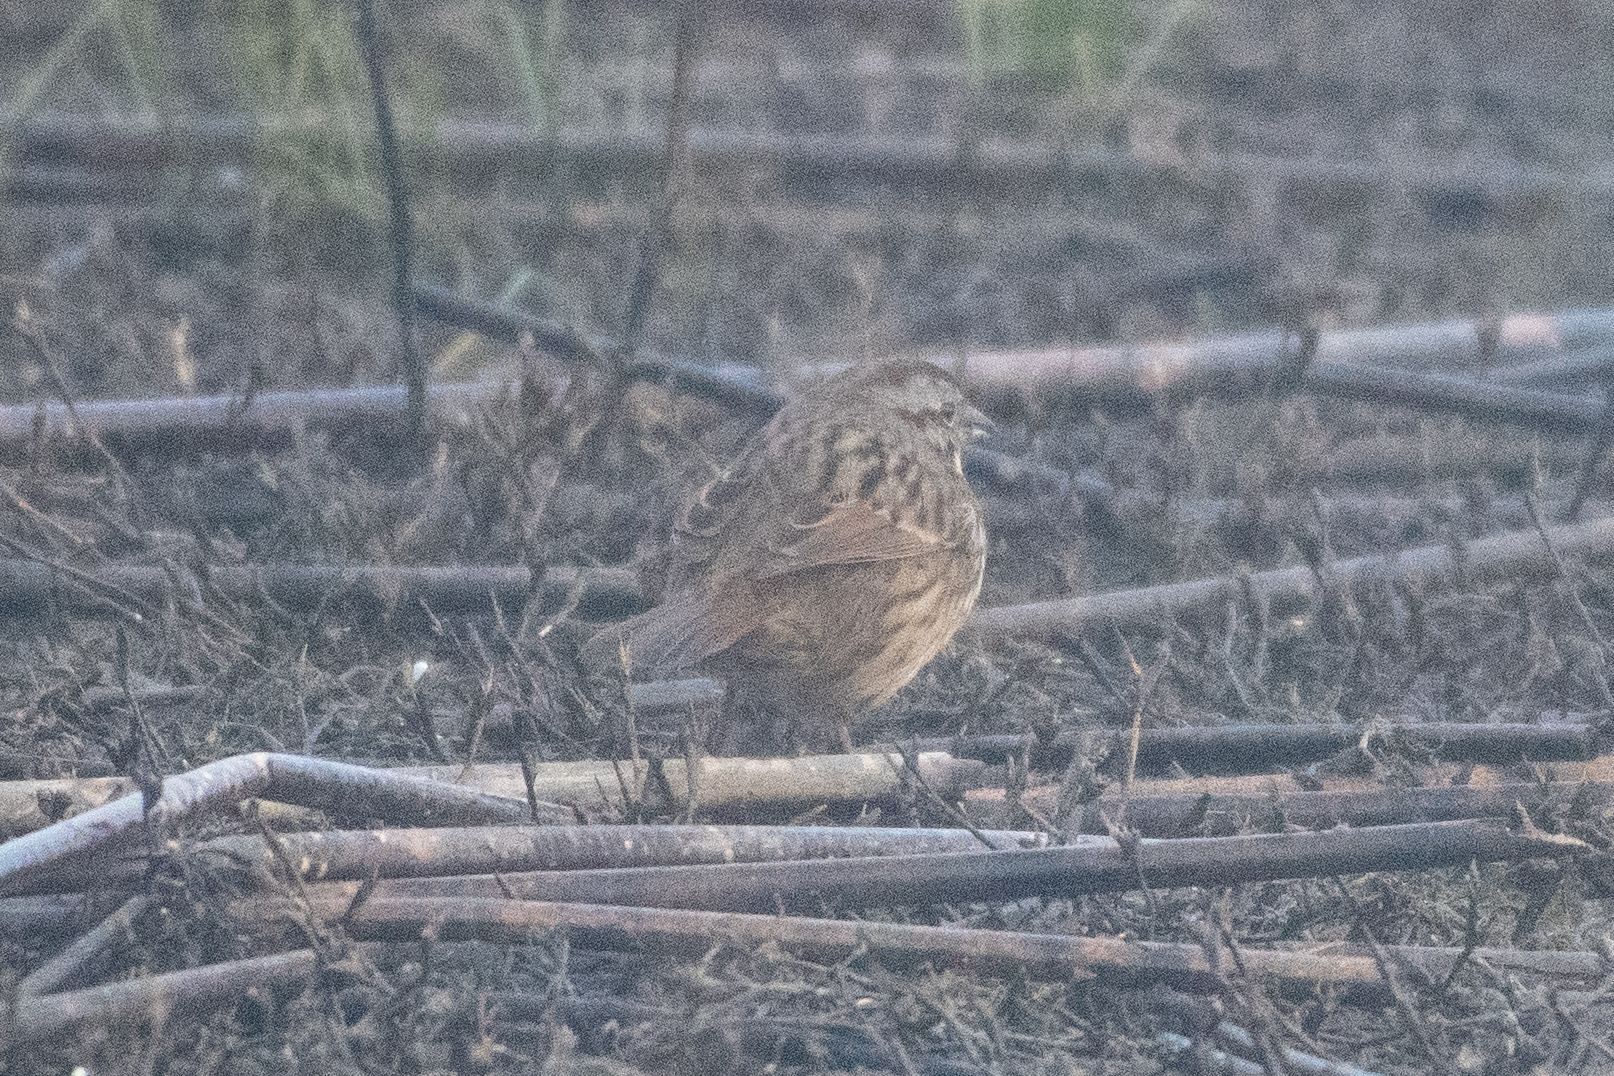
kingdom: Animalia
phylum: Chordata
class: Aves
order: Passeriformes
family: Passerellidae
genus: Melospiza
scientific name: Melospiza melodia
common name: Song sparrow
